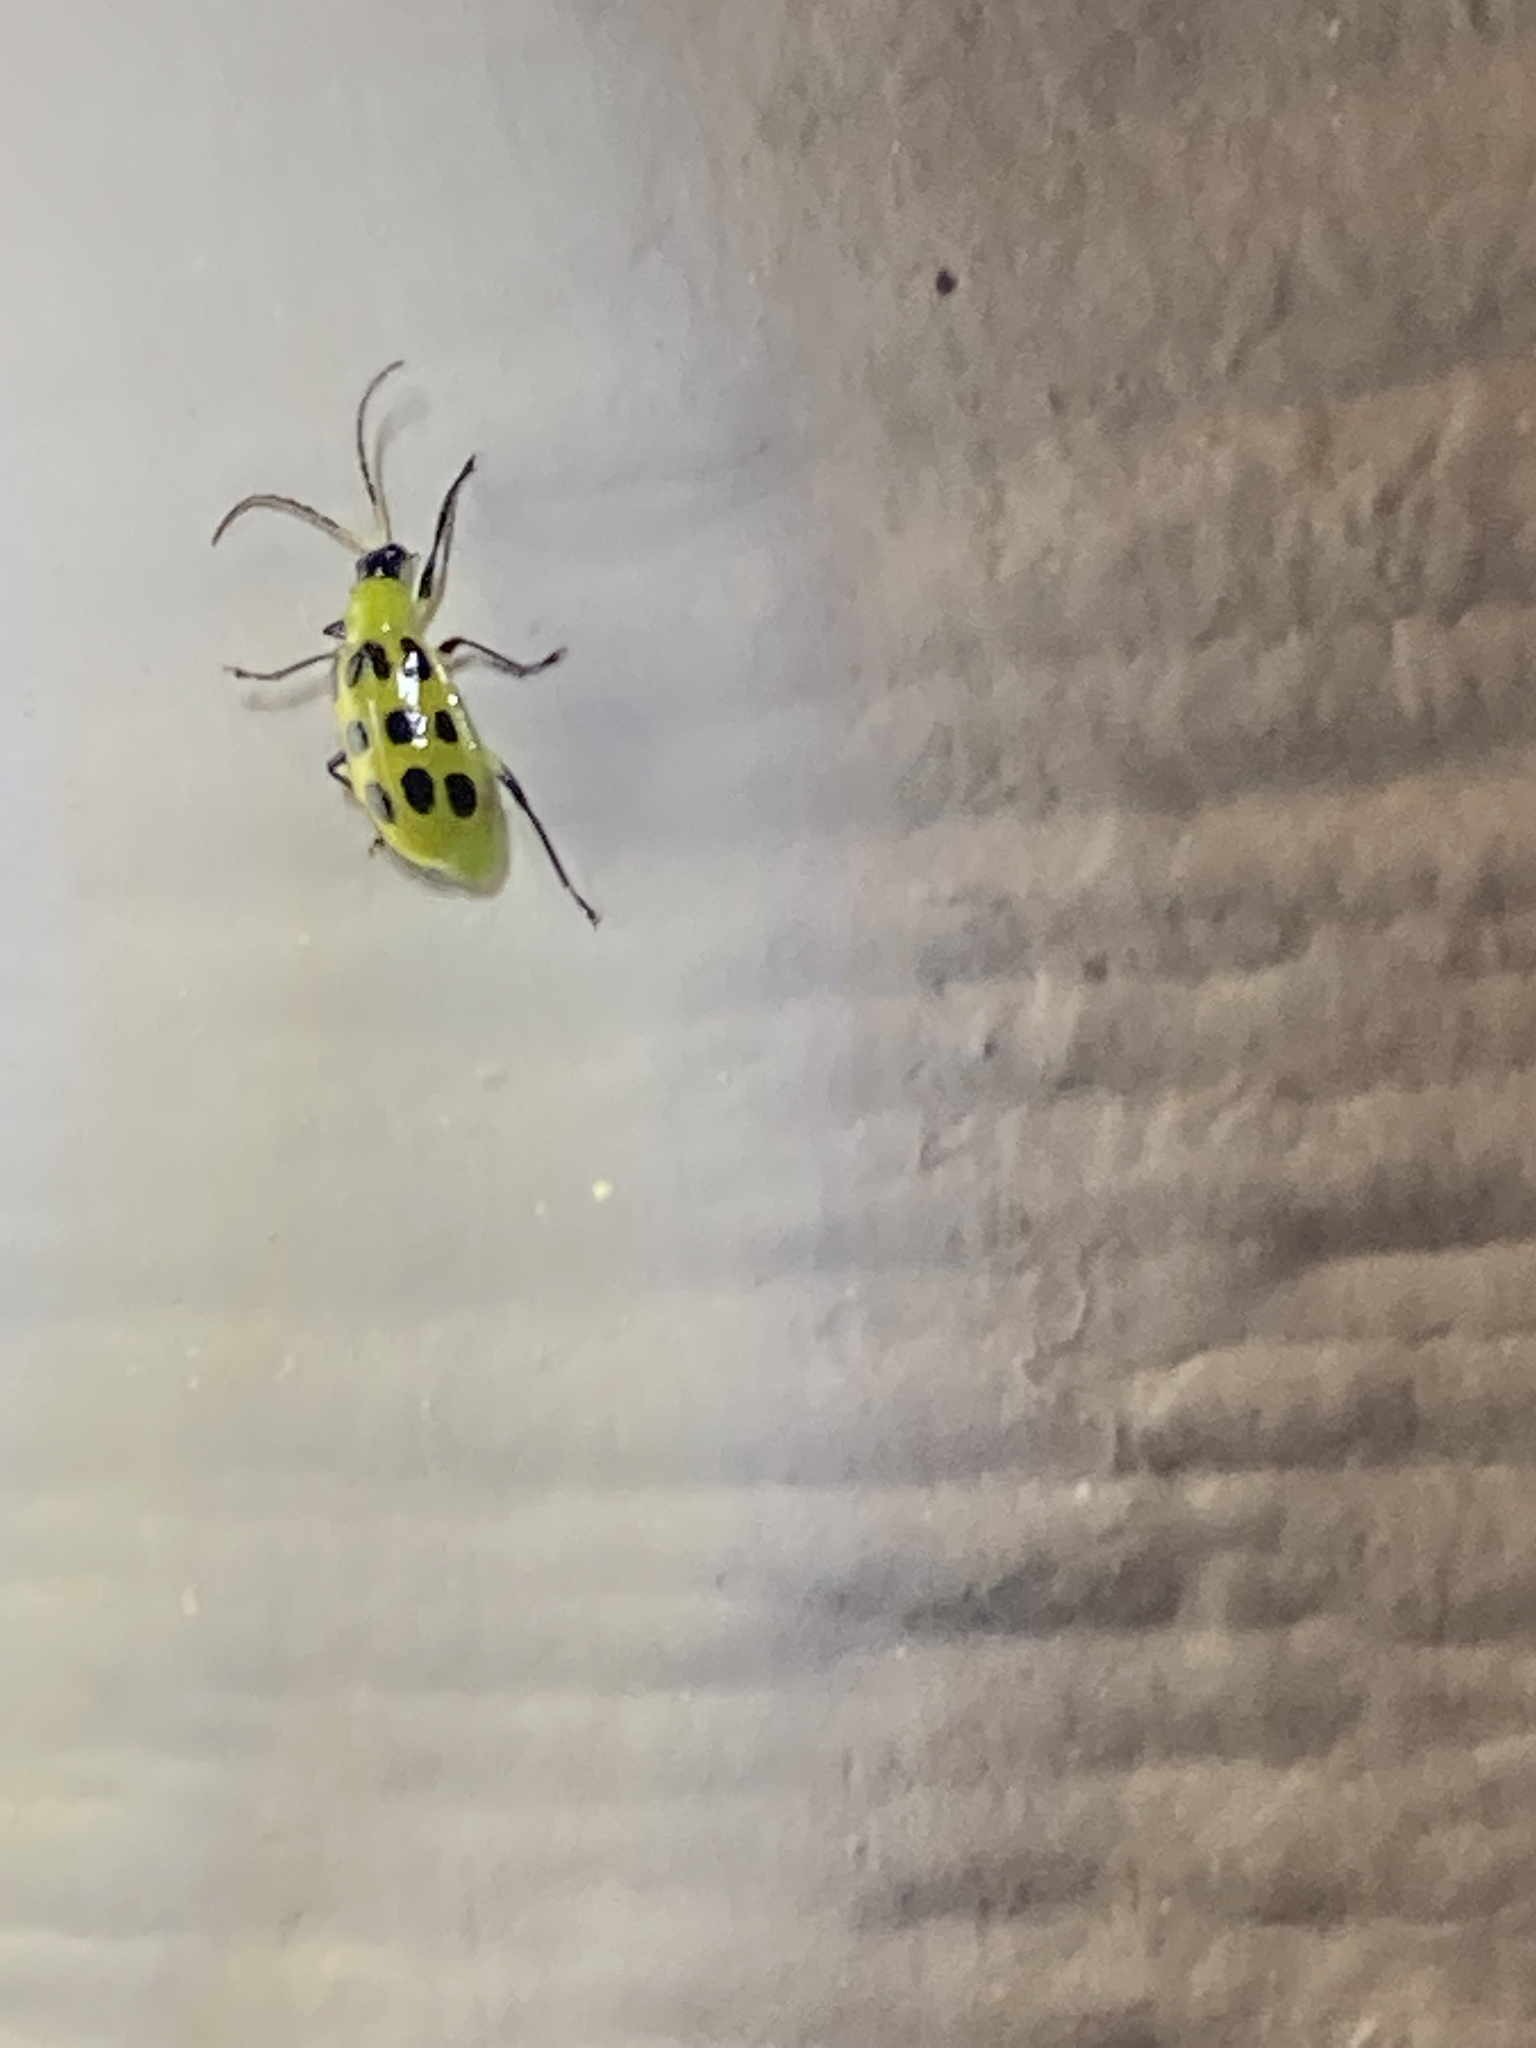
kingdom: Animalia
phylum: Arthropoda
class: Insecta
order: Coleoptera
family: Chrysomelidae
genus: Diabrotica
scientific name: Diabrotica undecimpunctata
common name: Spotted cucumber beetle
